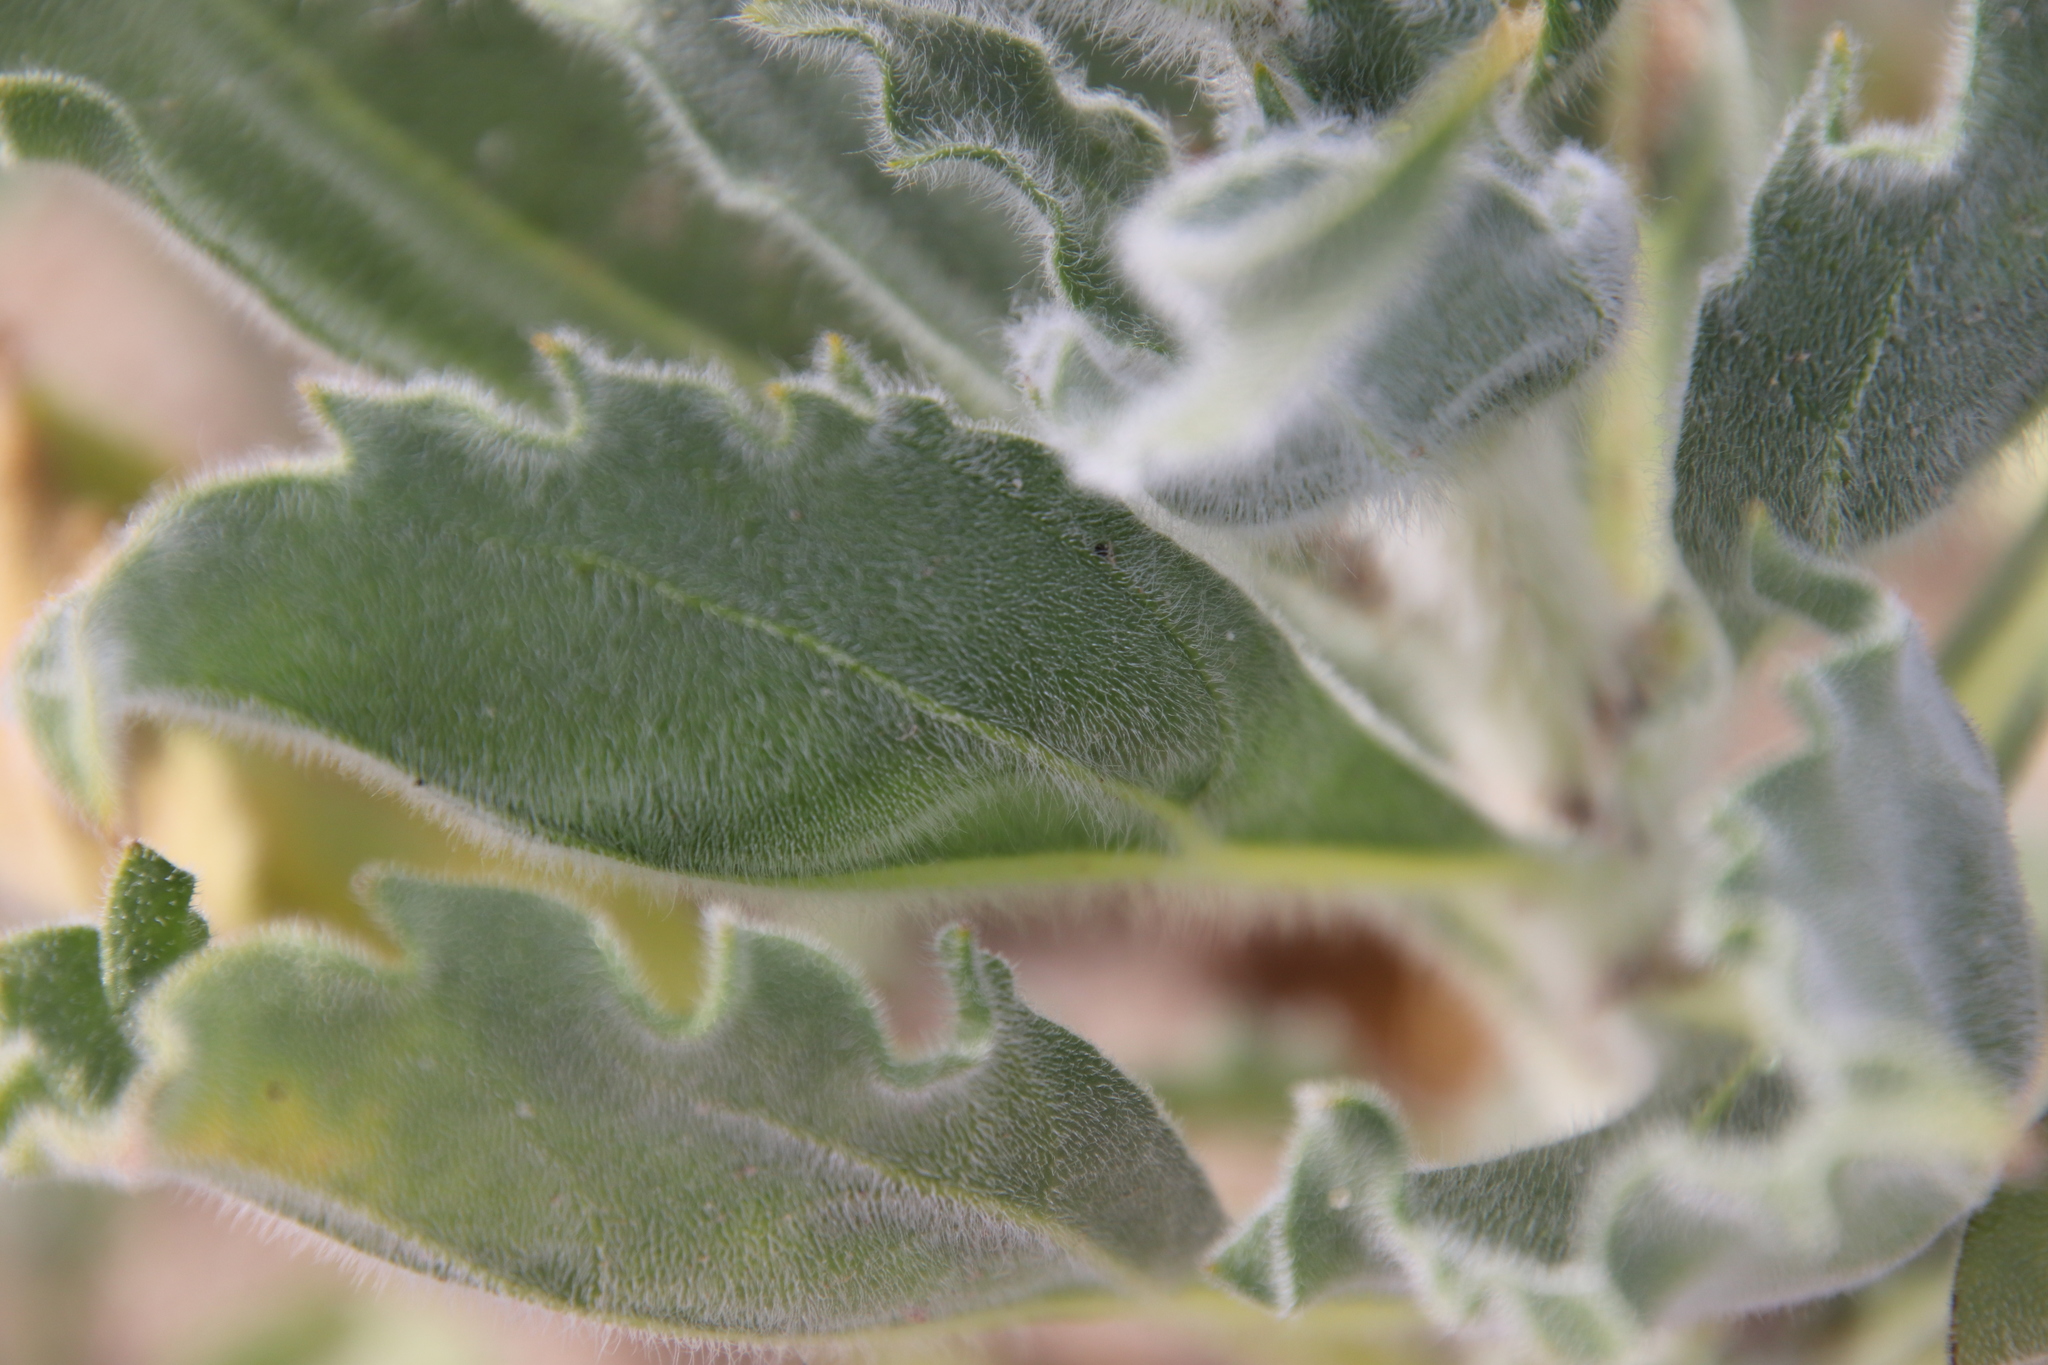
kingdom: Plantae
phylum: Tracheophyta
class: Magnoliopsida
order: Asterales
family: Asteraceae
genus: Geraea
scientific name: Geraea canescens
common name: Desert-gold
